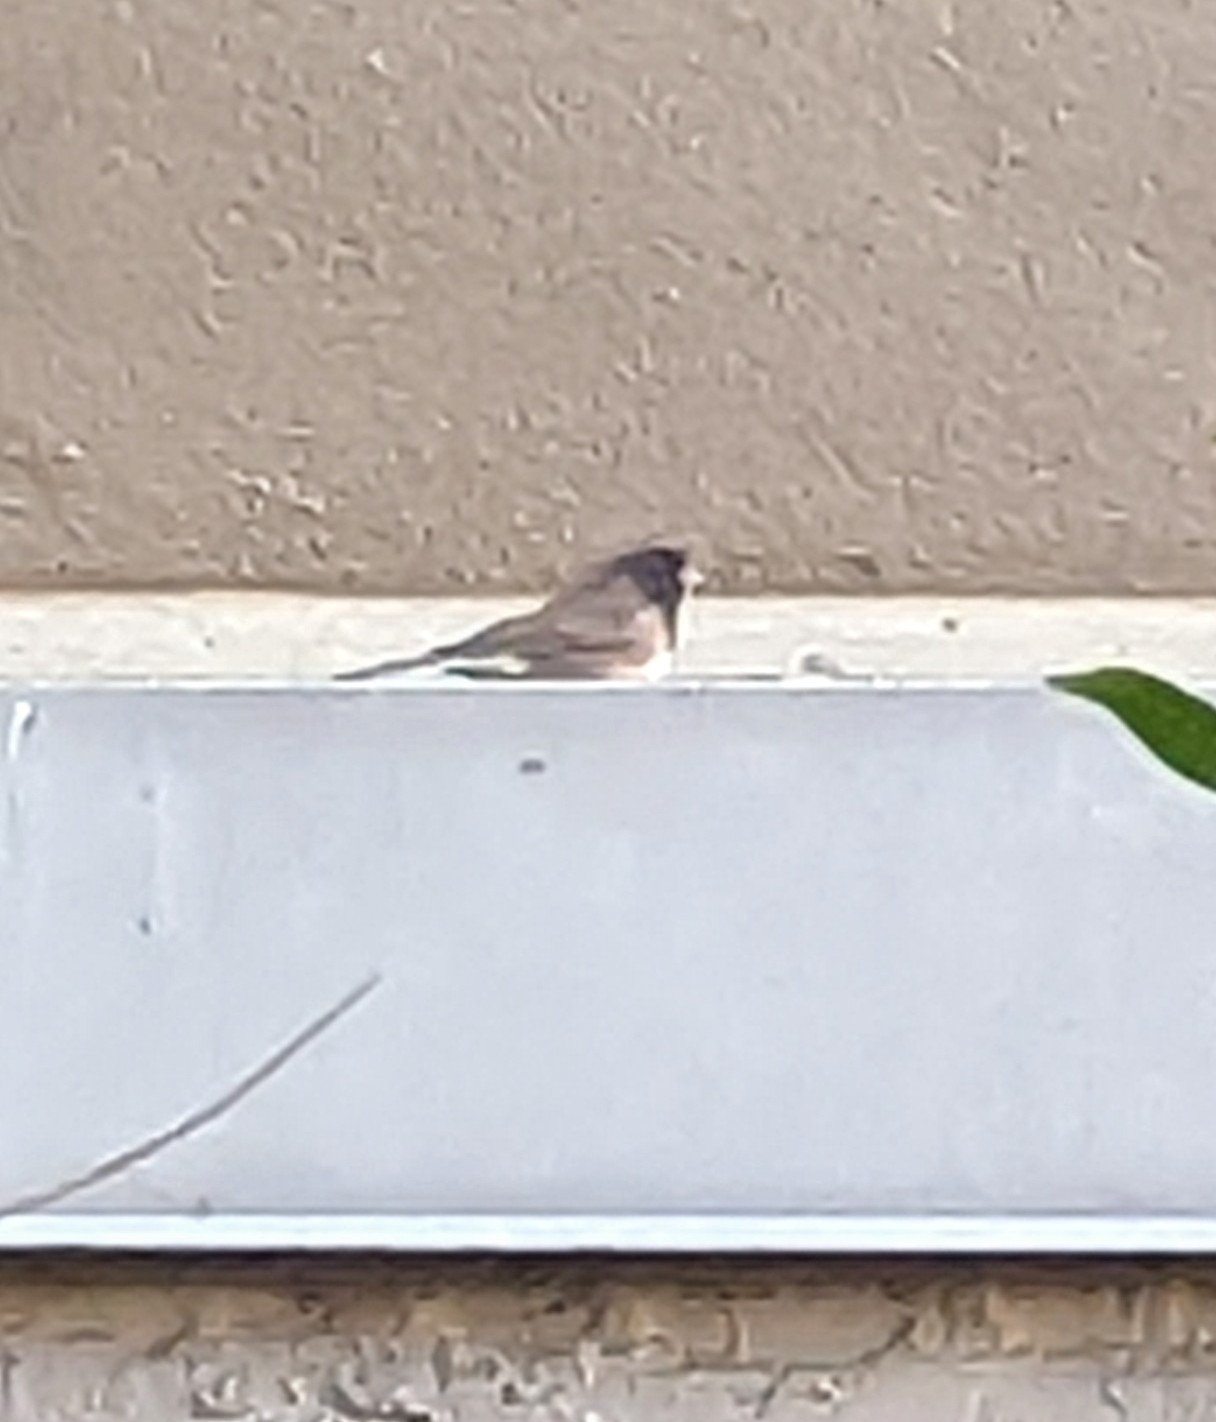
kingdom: Animalia
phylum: Chordata
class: Aves
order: Passeriformes
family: Passerellidae
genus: Junco
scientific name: Junco hyemalis
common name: Dark-eyed junco
